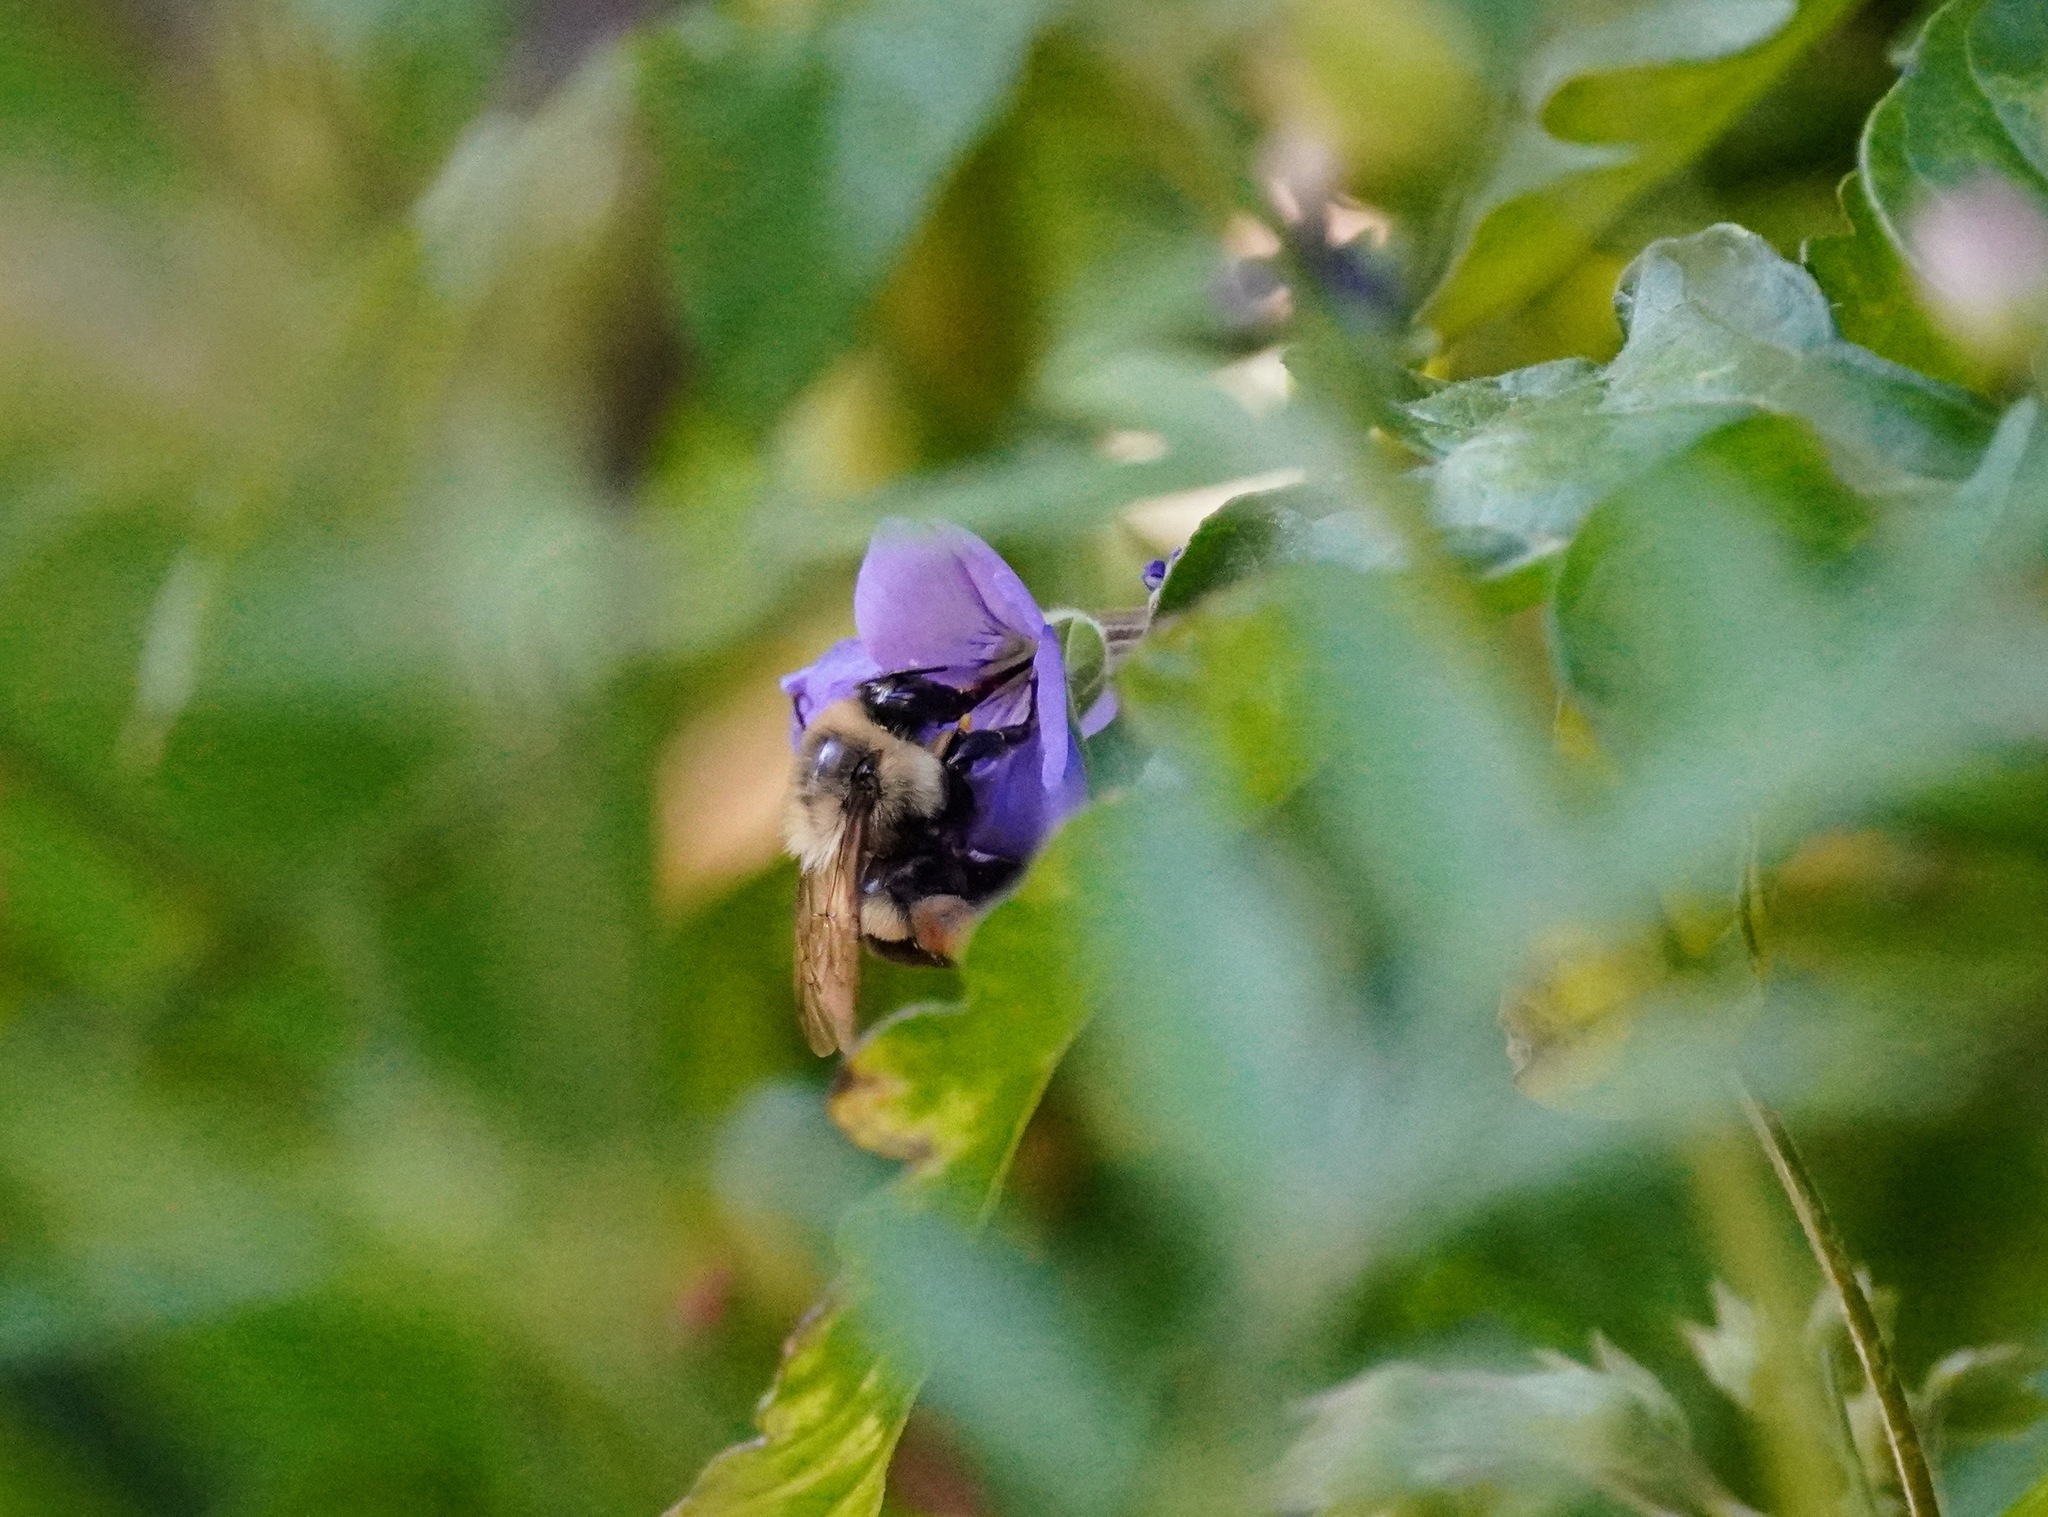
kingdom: Animalia
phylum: Arthropoda
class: Insecta
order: Hymenoptera
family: Apidae
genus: Bombus
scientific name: Bombus impatiens
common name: Common eastern bumble bee
